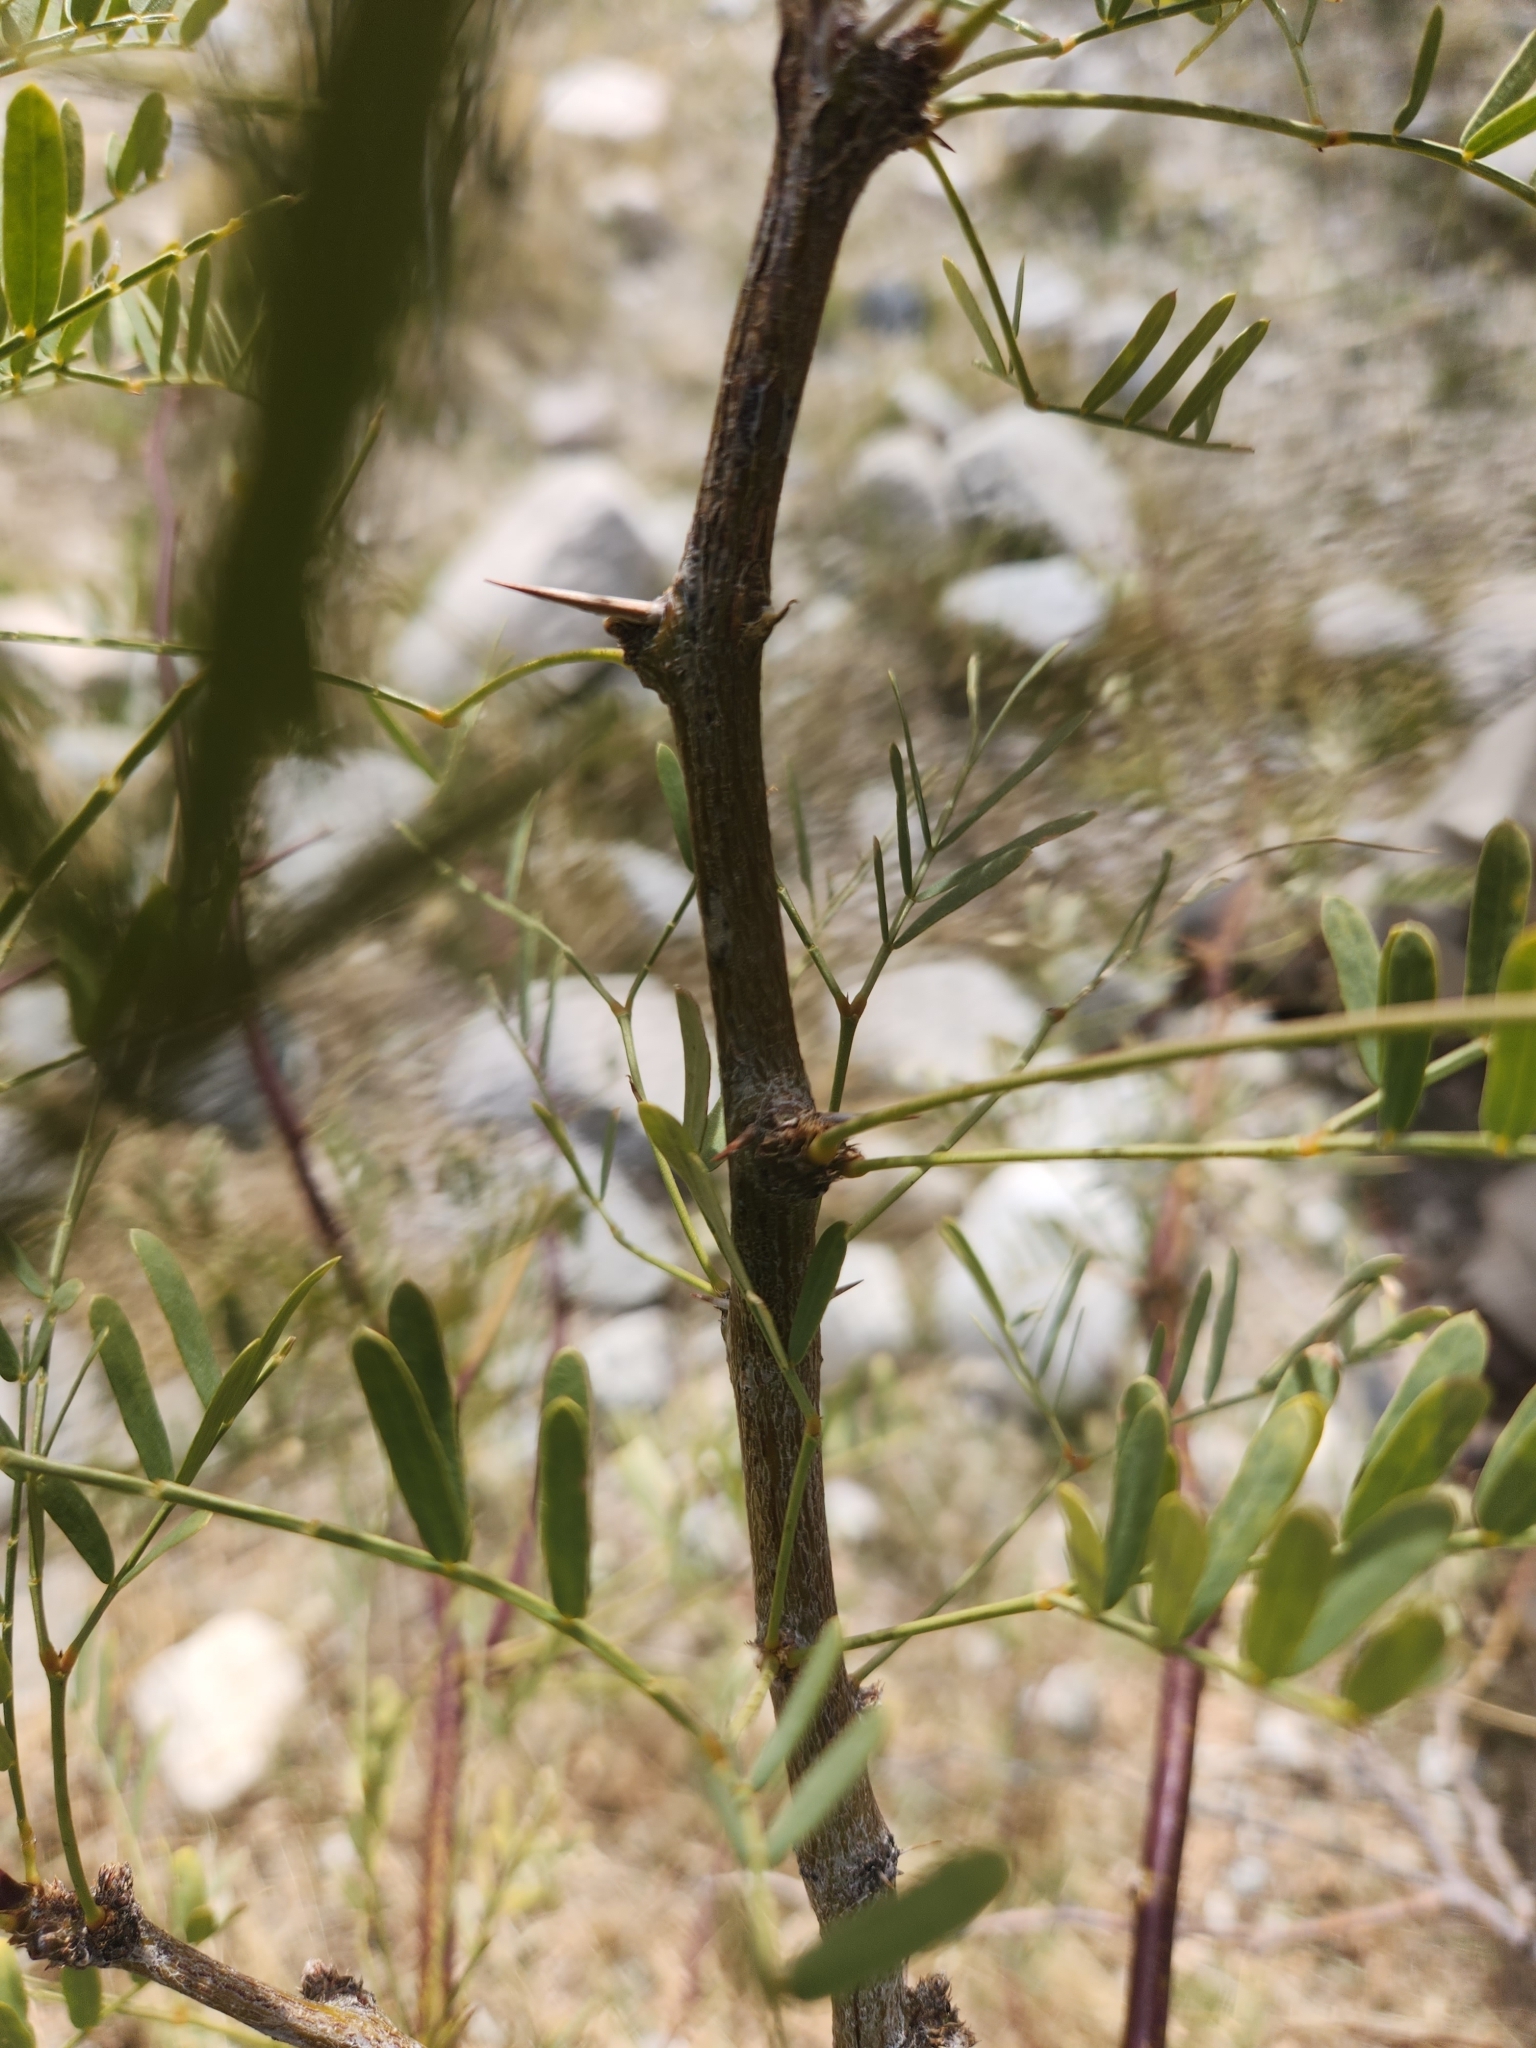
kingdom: Plantae
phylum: Tracheophyta
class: Magnoliopsida
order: Fabales
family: Fabaceae
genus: Prosopis
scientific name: Prosopis pubescens
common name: Screw-bean
